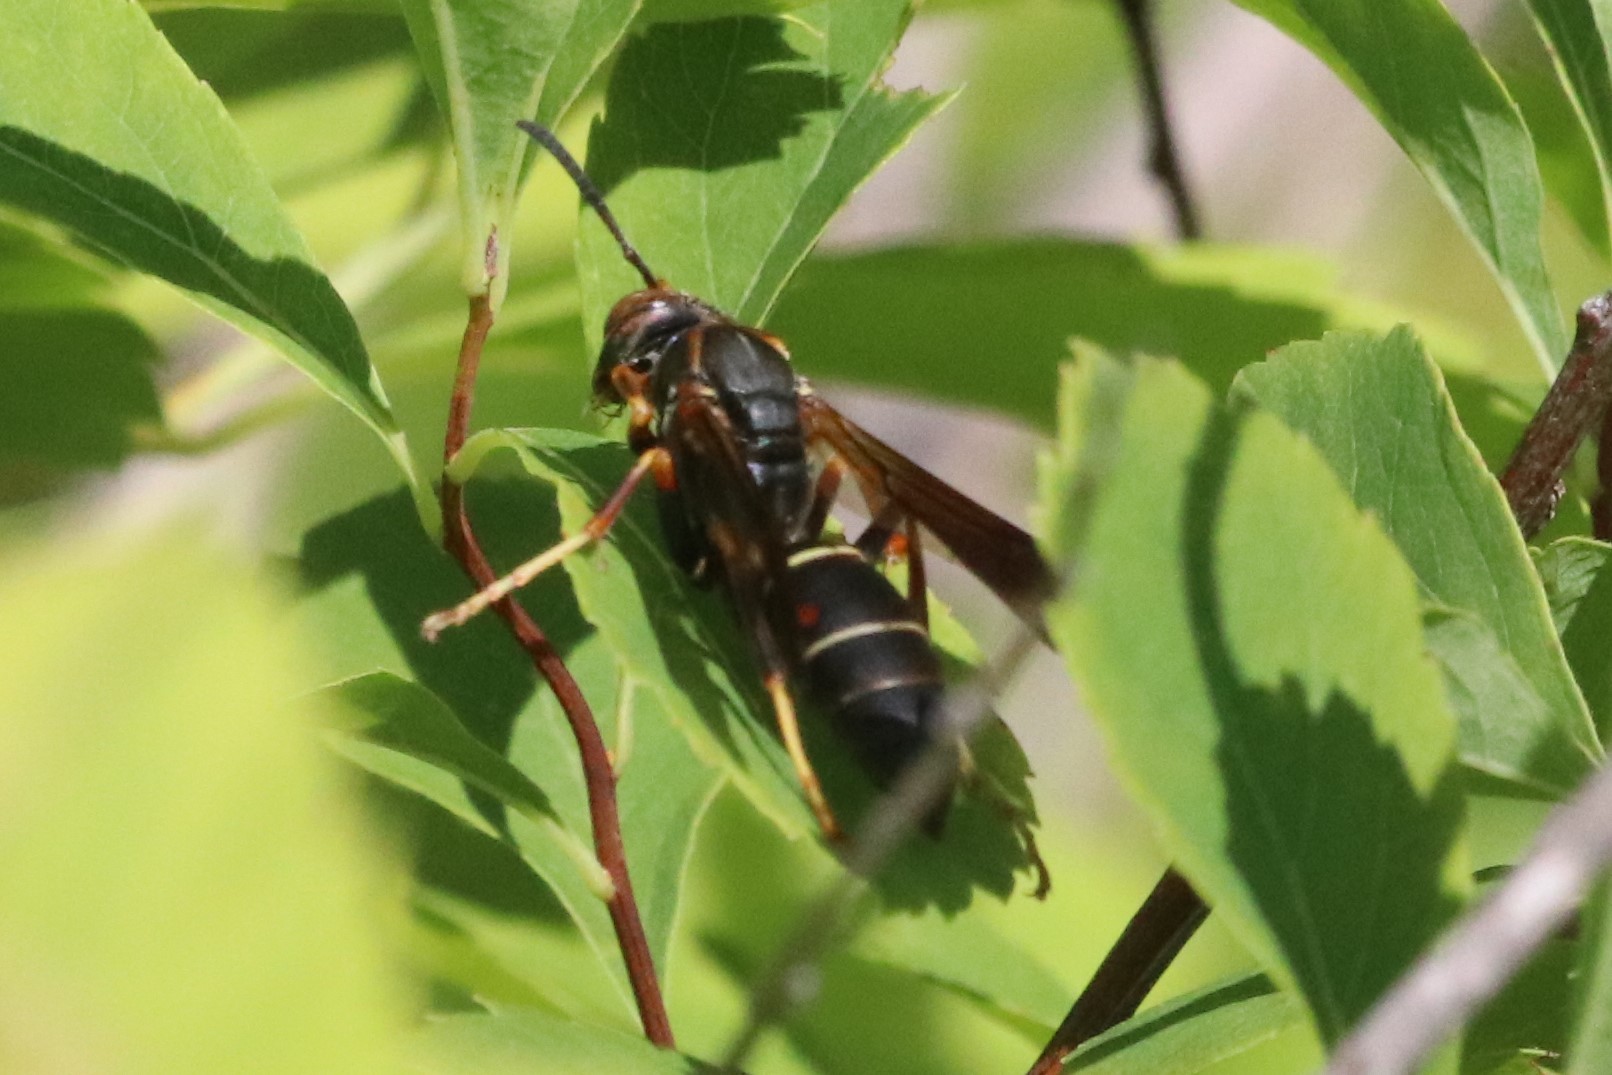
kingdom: Animalia
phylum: Arthropoda
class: Insecta
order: Hymenoptera
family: Eumenidae
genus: Polistes
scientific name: Polistes fuscatus
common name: Dark paper wasp
